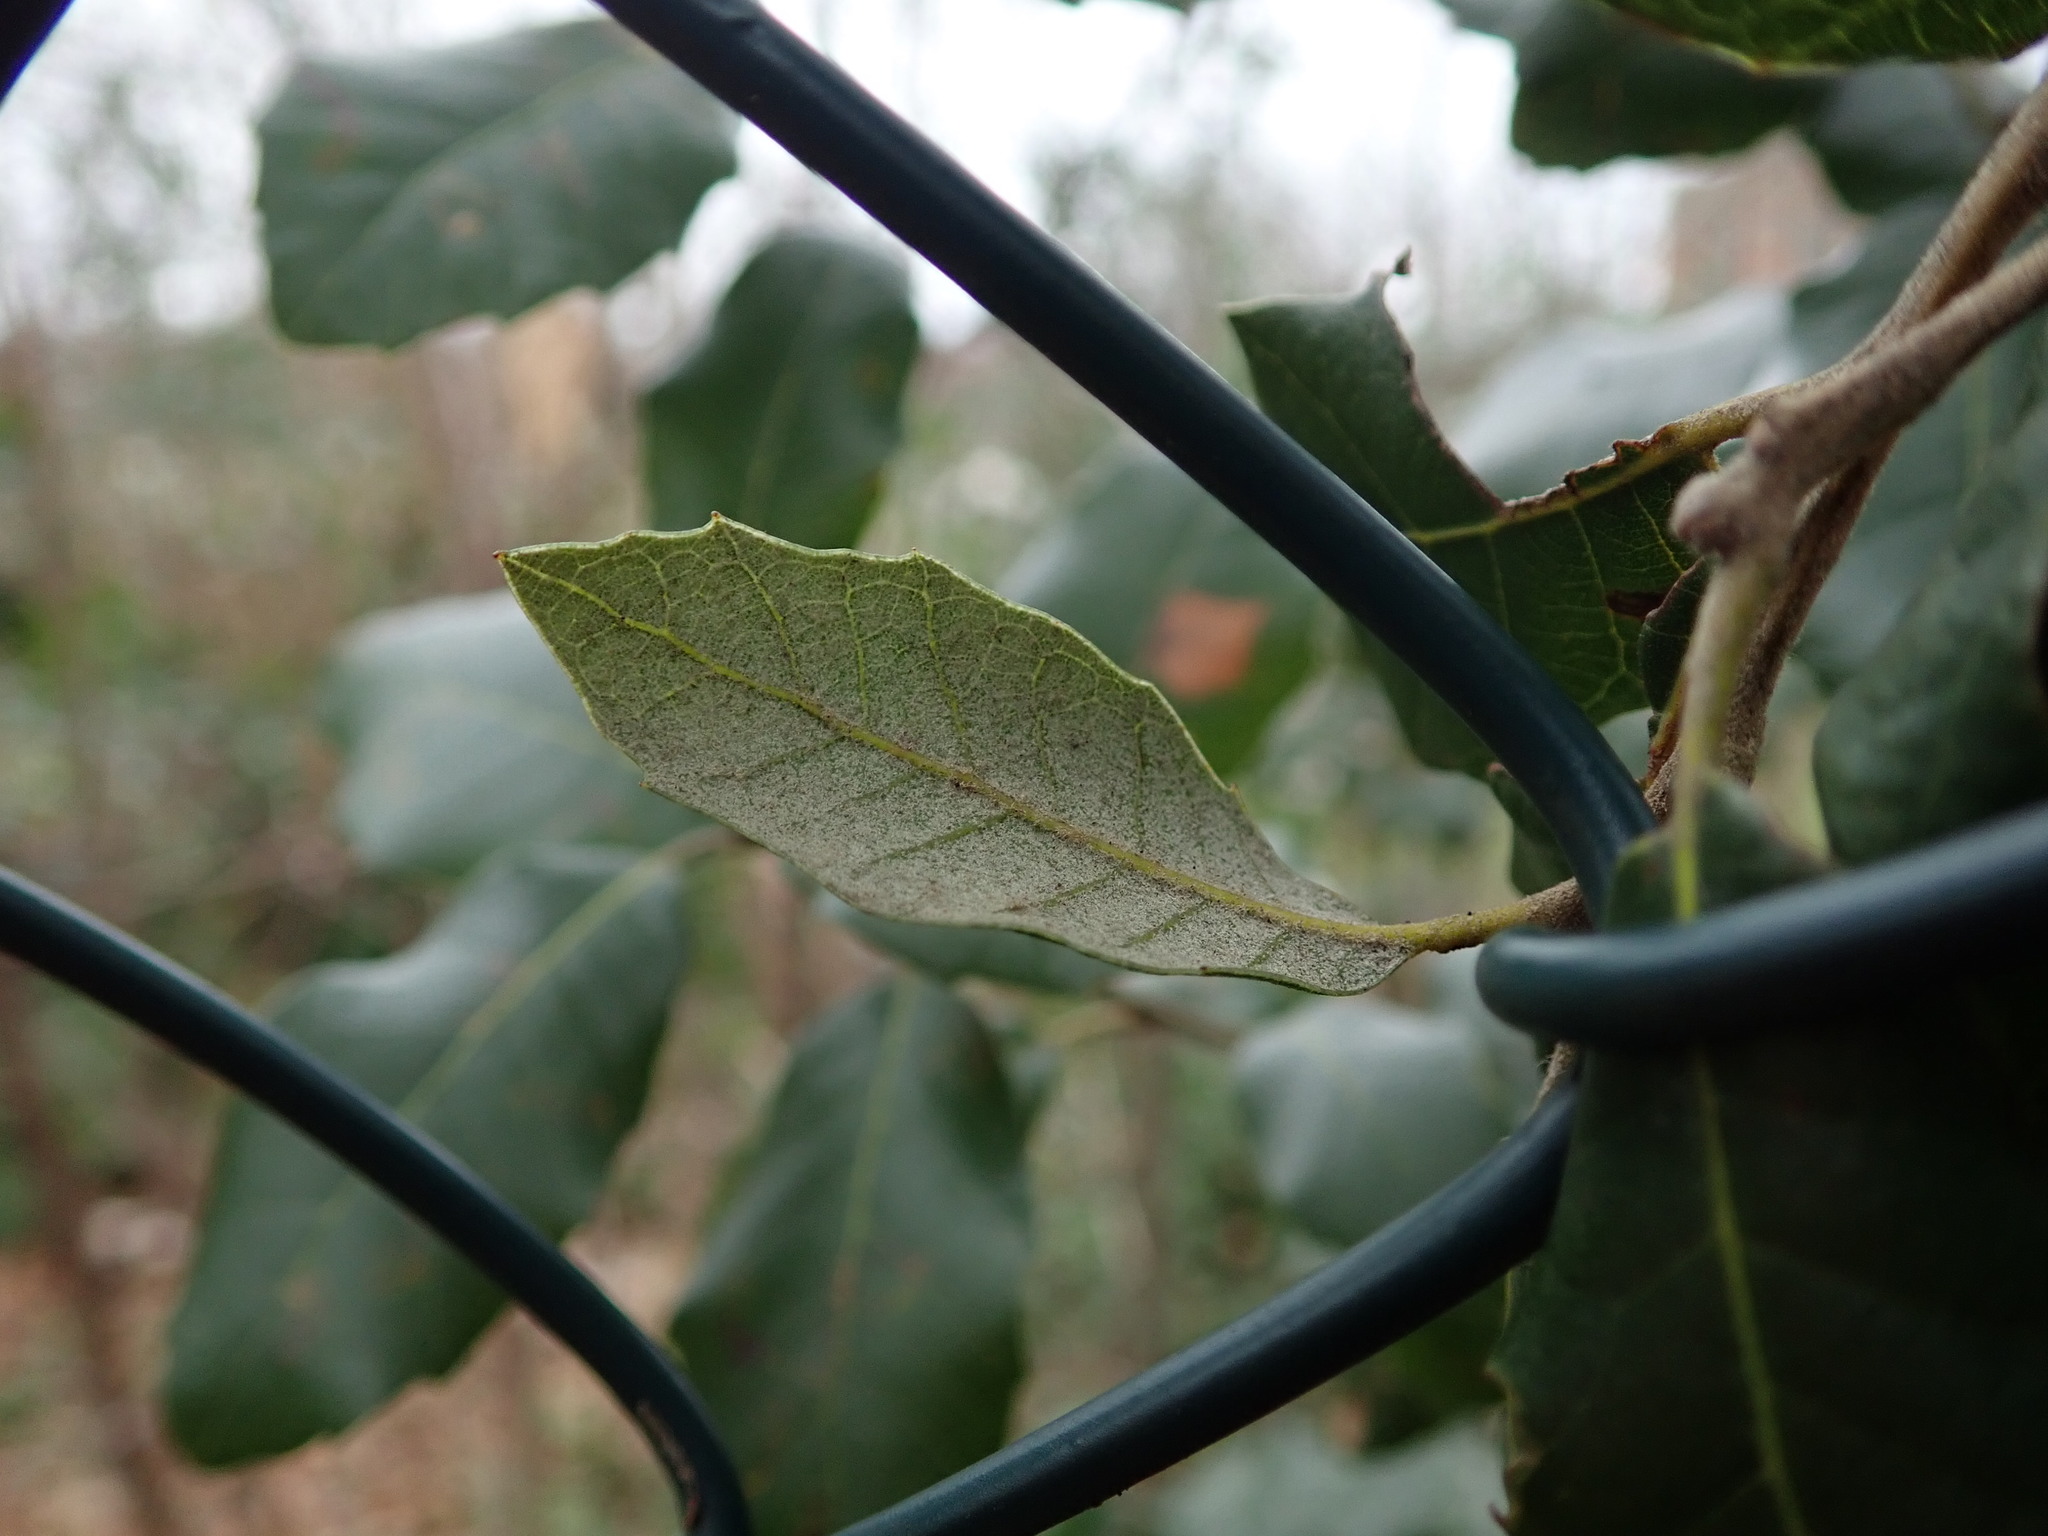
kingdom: Plantae
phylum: Tracheophyta
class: Magnoliopsida
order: Fagales
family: Fagaceae
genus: Quercus
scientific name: Quercus ilex
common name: Evergreen oak
